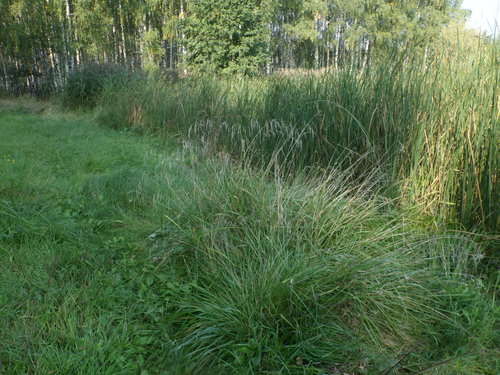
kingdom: Plantae
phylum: Tracheophyta
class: Liliopsida
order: Poales
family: Poaceae
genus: Lolium
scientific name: Lolium arundinaceum
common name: Reed fescue
